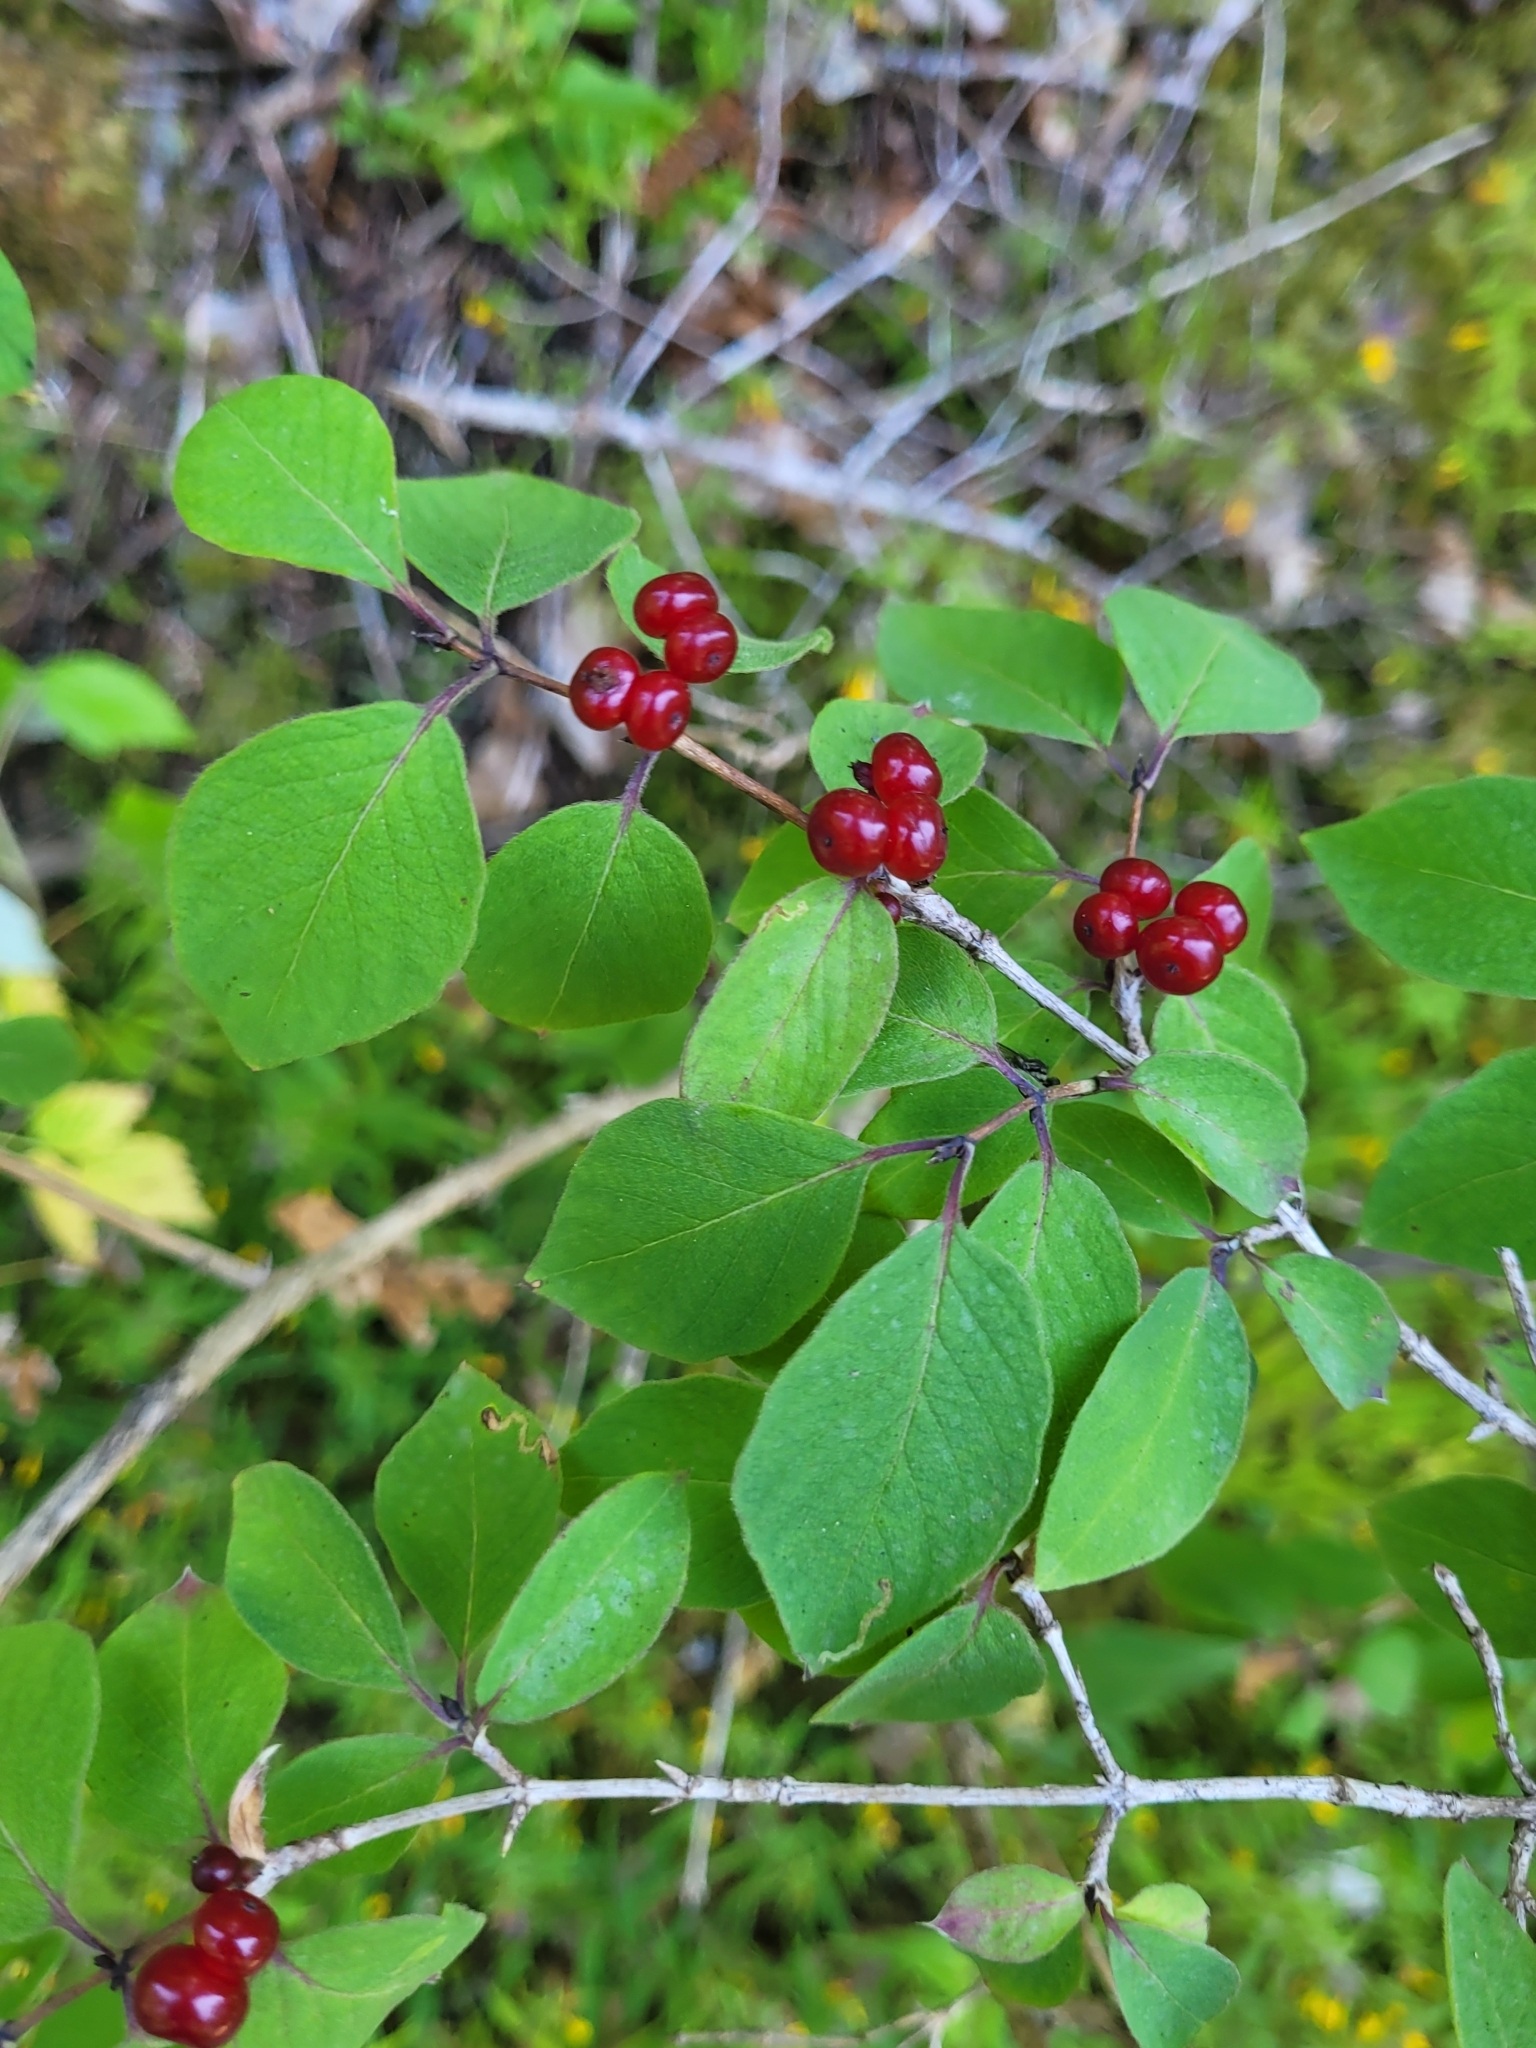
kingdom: Plantae
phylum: Tracheophyta
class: Magnoliopsida
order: Dipsacales
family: Caprifoliaceae
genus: Lonicera
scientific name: Lonicera xylosteum
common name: Fly honeysuckle
